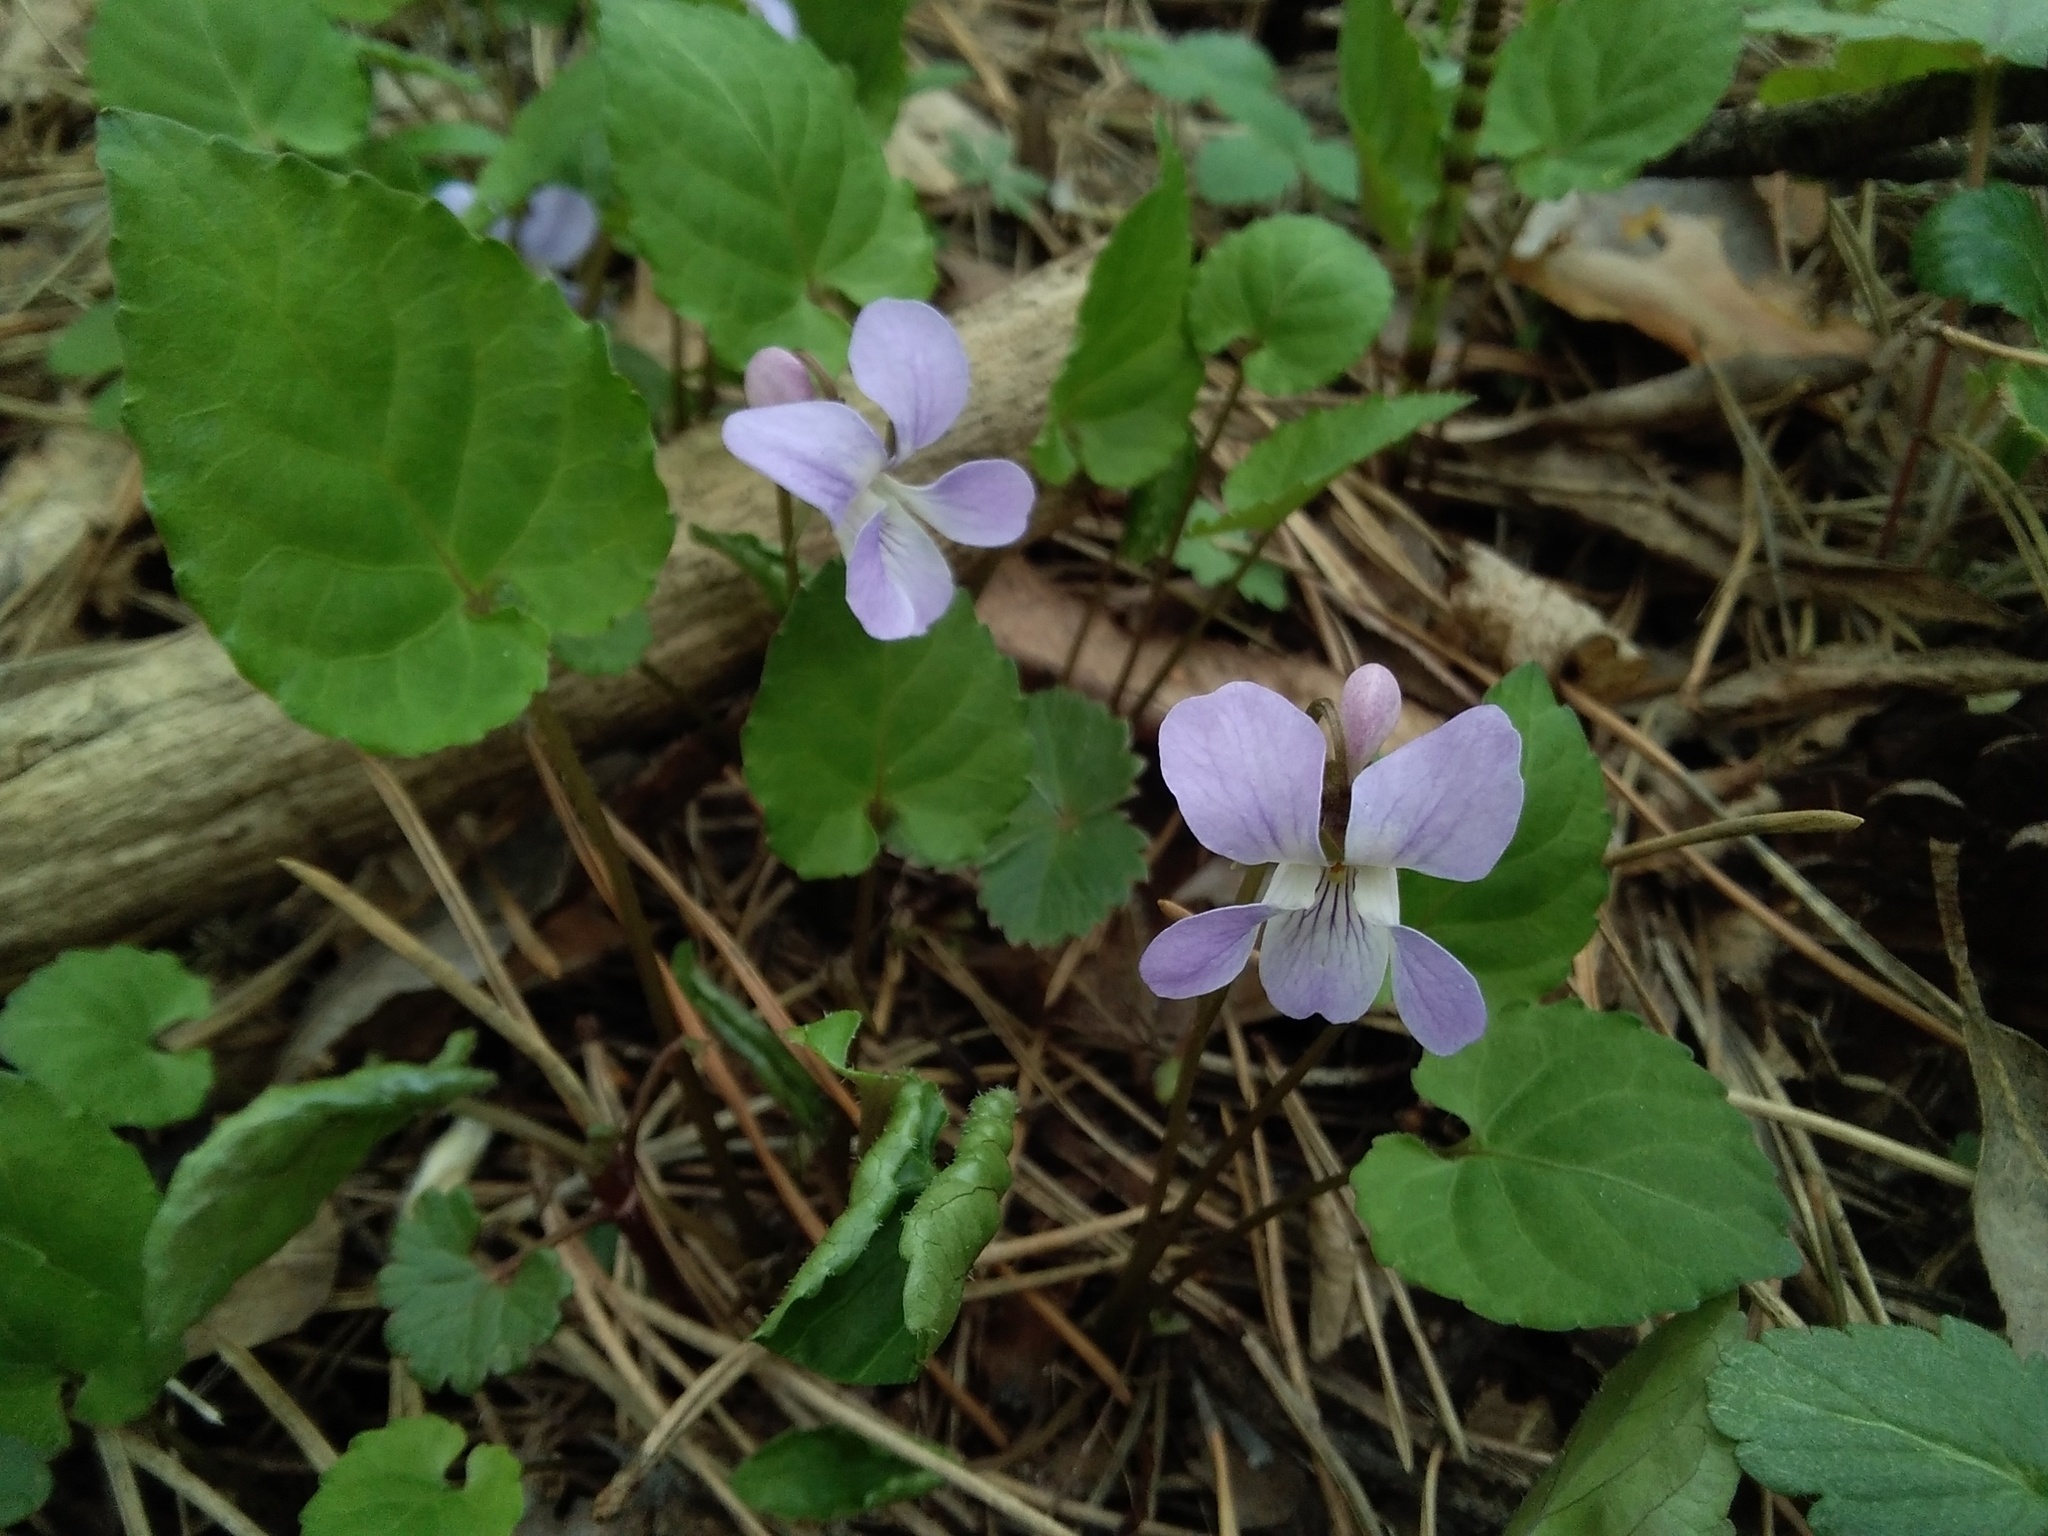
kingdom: Plantae
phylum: Tracheophyta
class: Magnoliopsida
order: Malpighiales
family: Violaceae
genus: Viola
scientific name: Viola selkirkii
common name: Selkirk's violet
